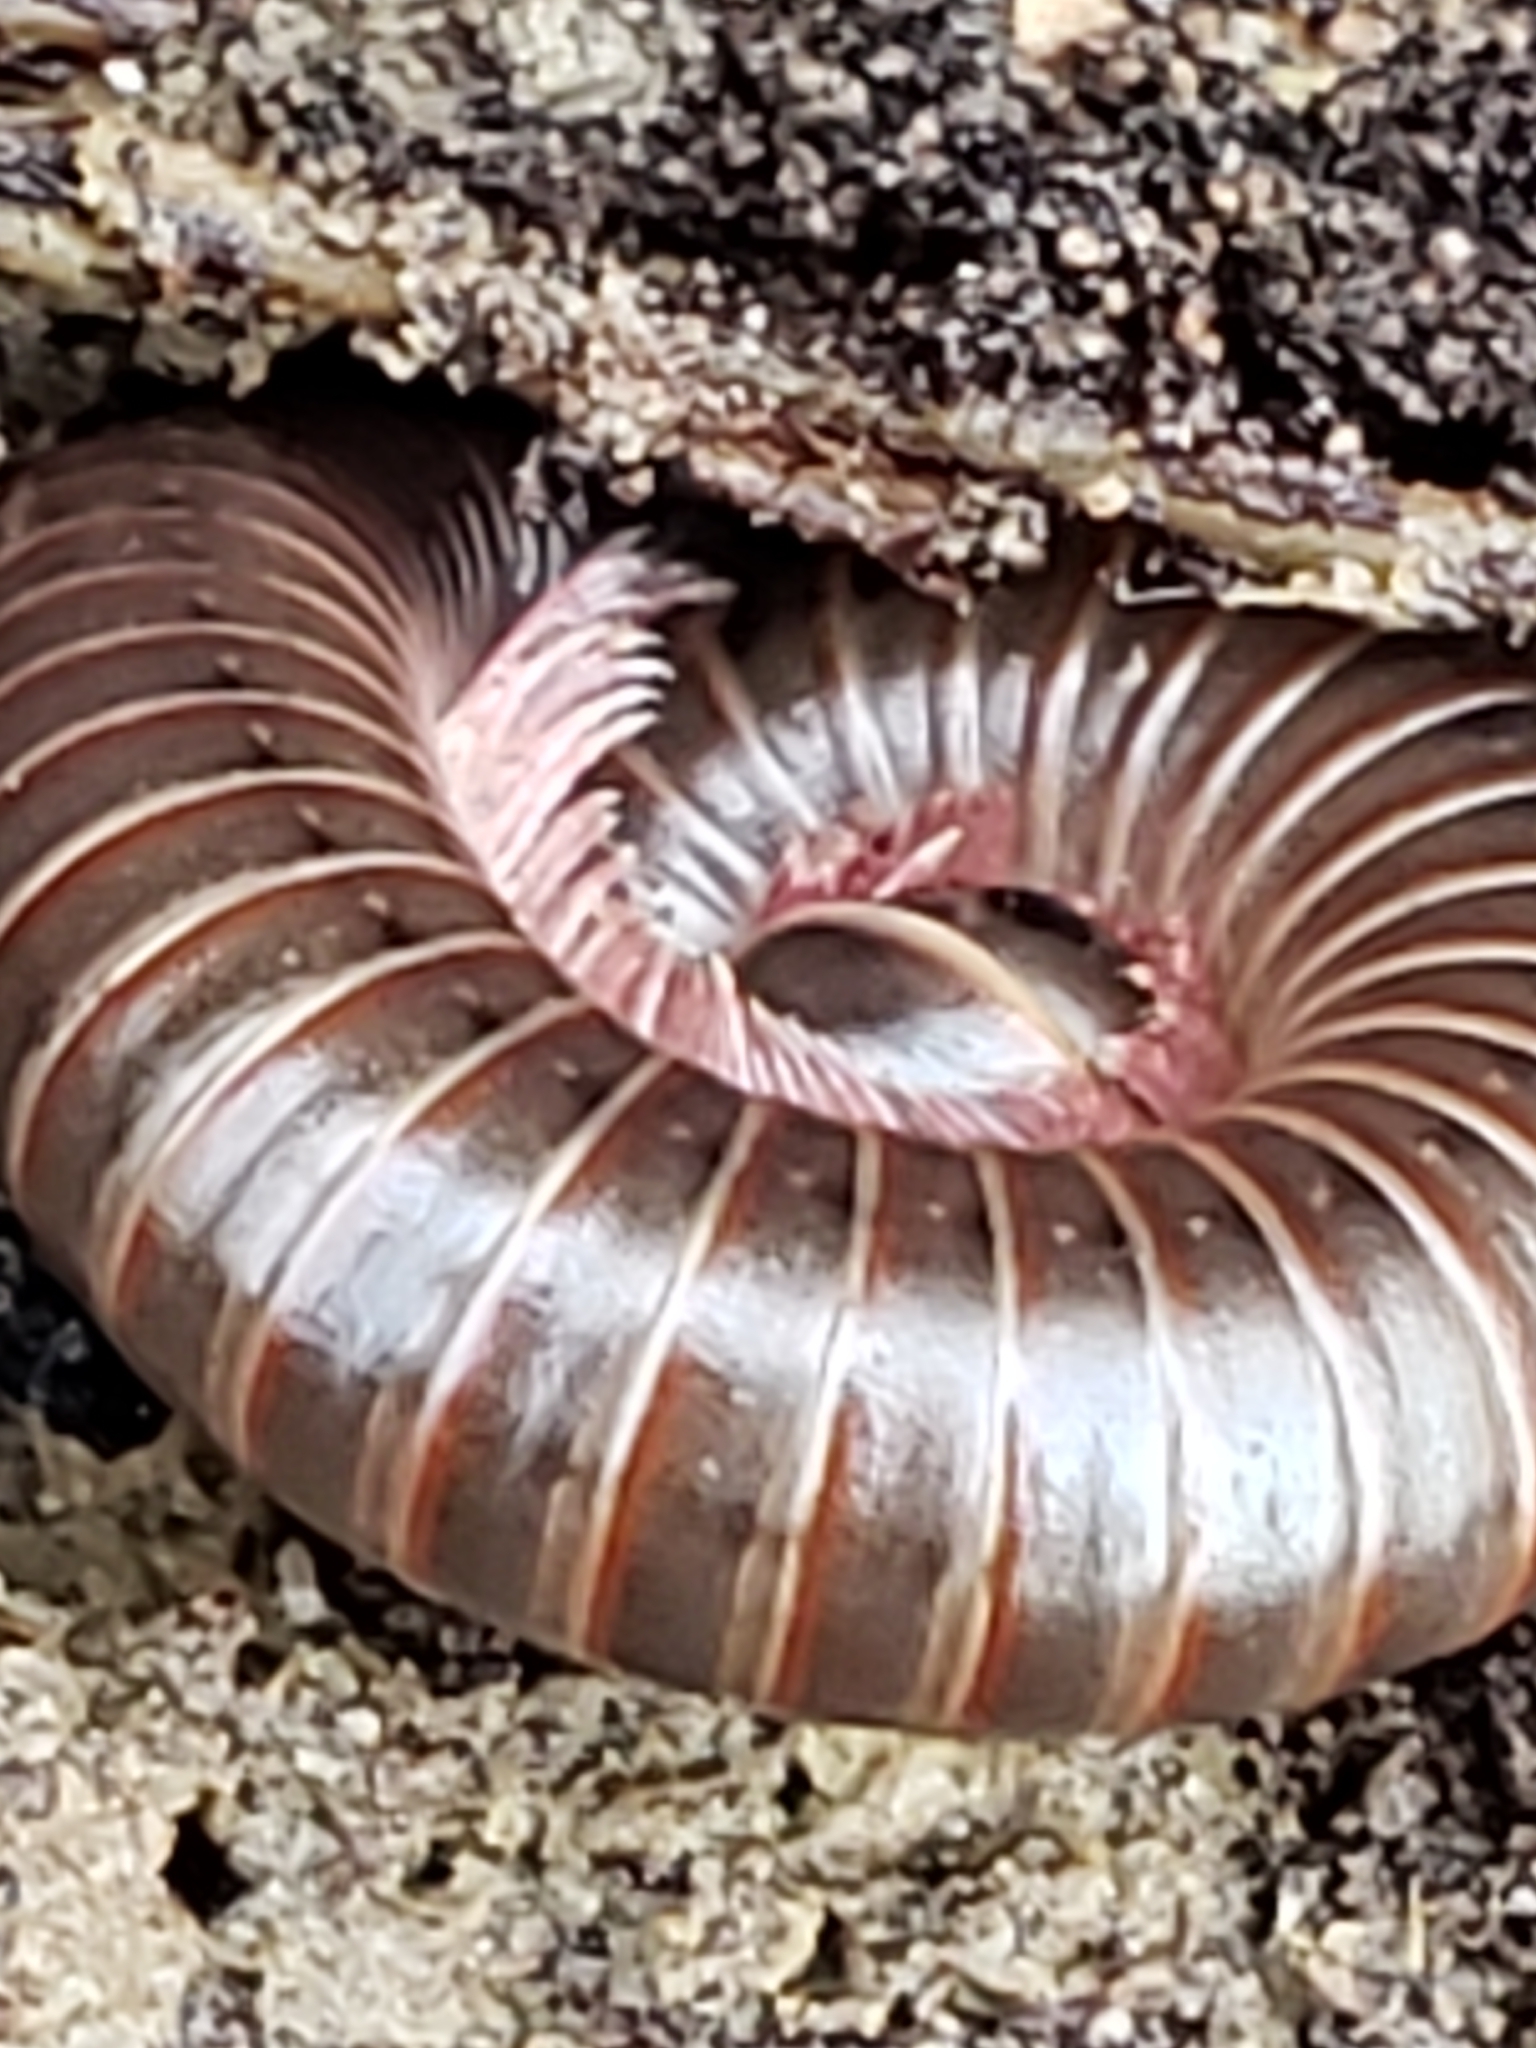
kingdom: Animalia
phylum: Arthropoda
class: Diplopoda
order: Spirobolida
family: Spirobolidae
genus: Narceus
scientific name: Narceus
